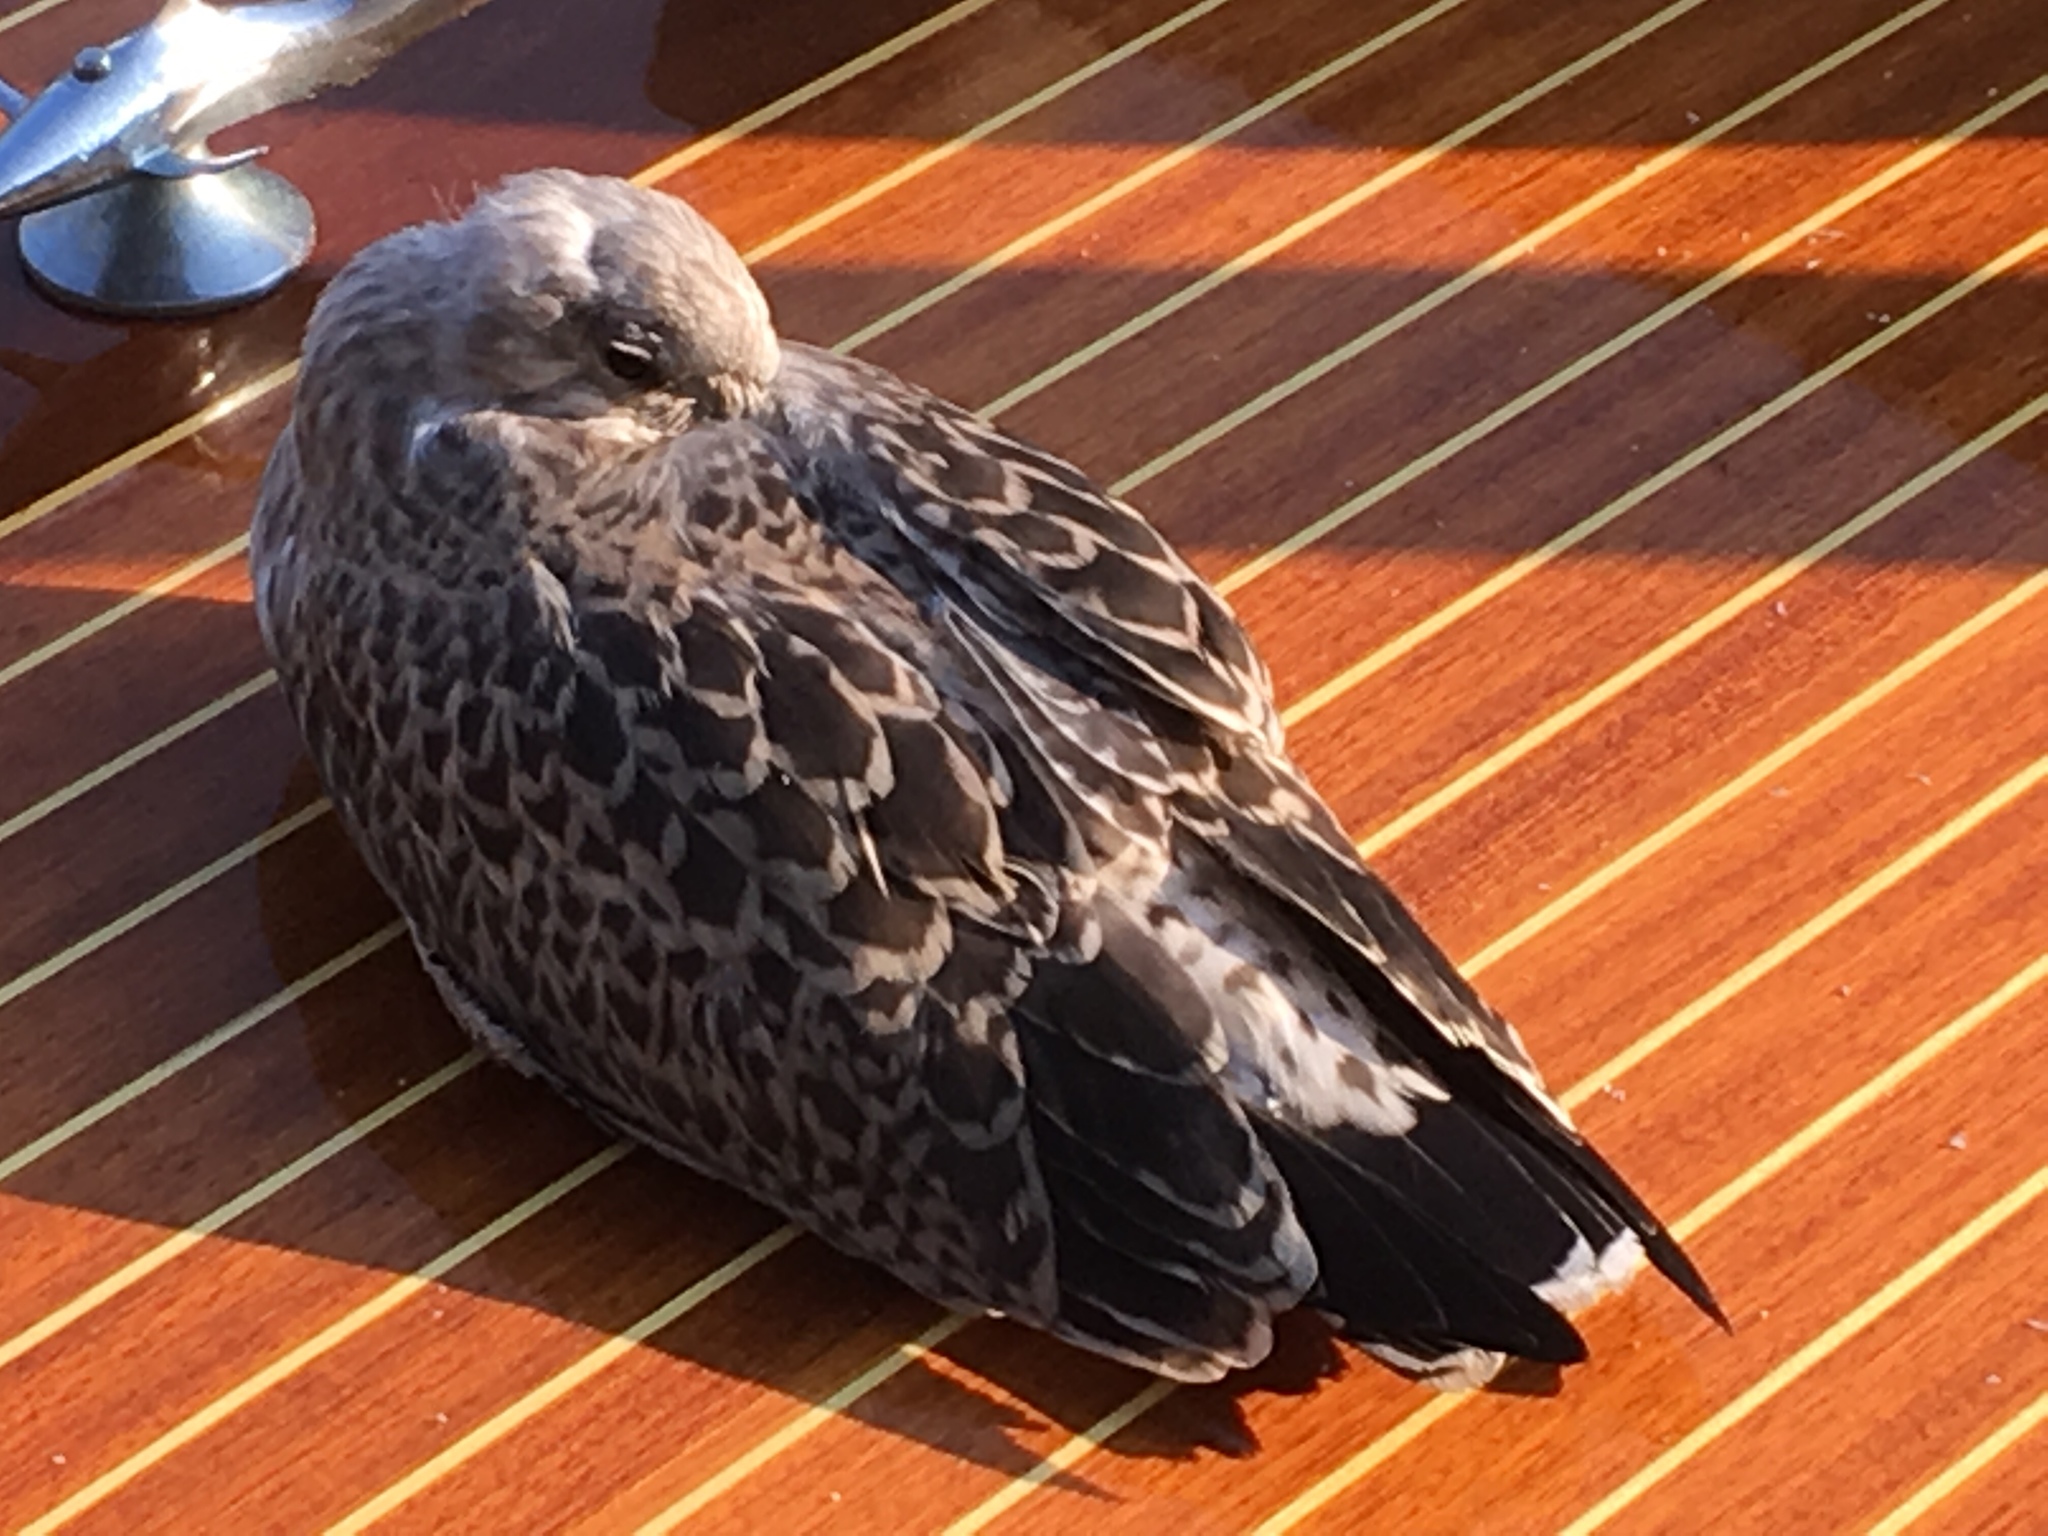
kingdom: Animalia
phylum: Chordata
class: Aves
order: Charadriiformes
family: Laridae
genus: Larus
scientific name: Larus michahellis
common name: Yellow-legged gull
